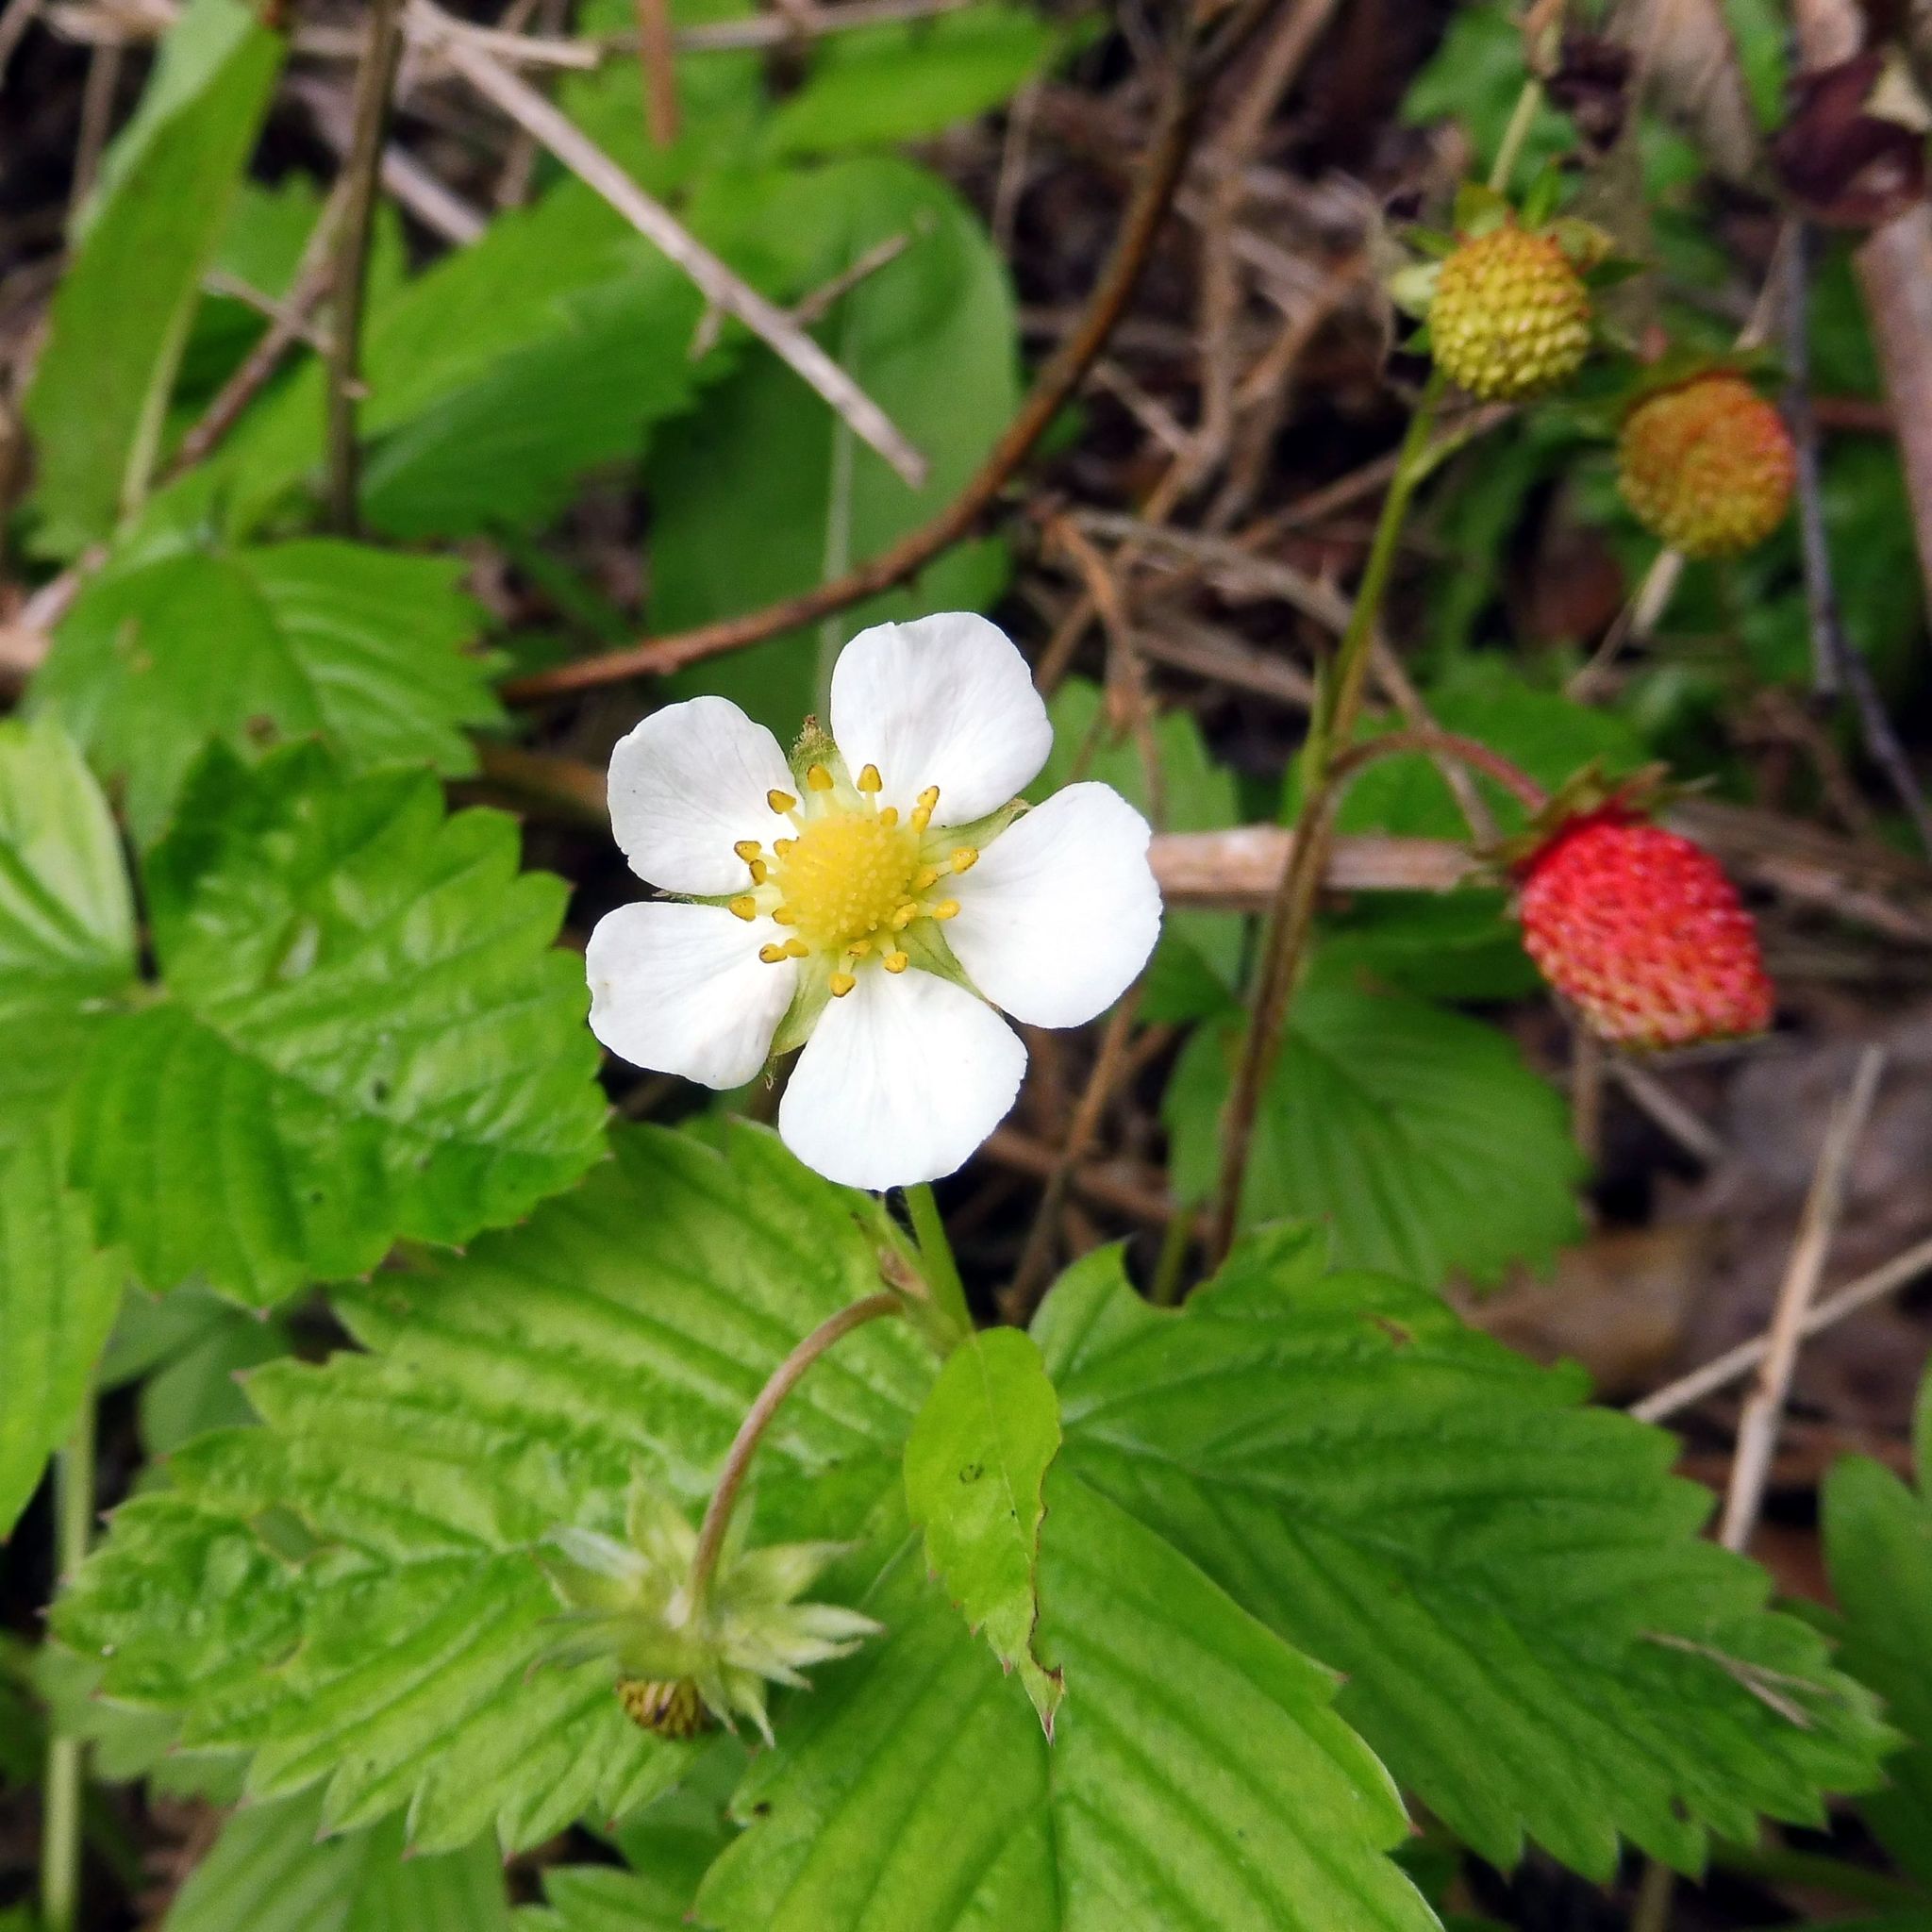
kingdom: Plantae
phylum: Tracheophyta
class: Magnoliopsida
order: Rosales
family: Rosaceae
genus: Fragaria
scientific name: Fragaria vesca
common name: Wild strawberry
